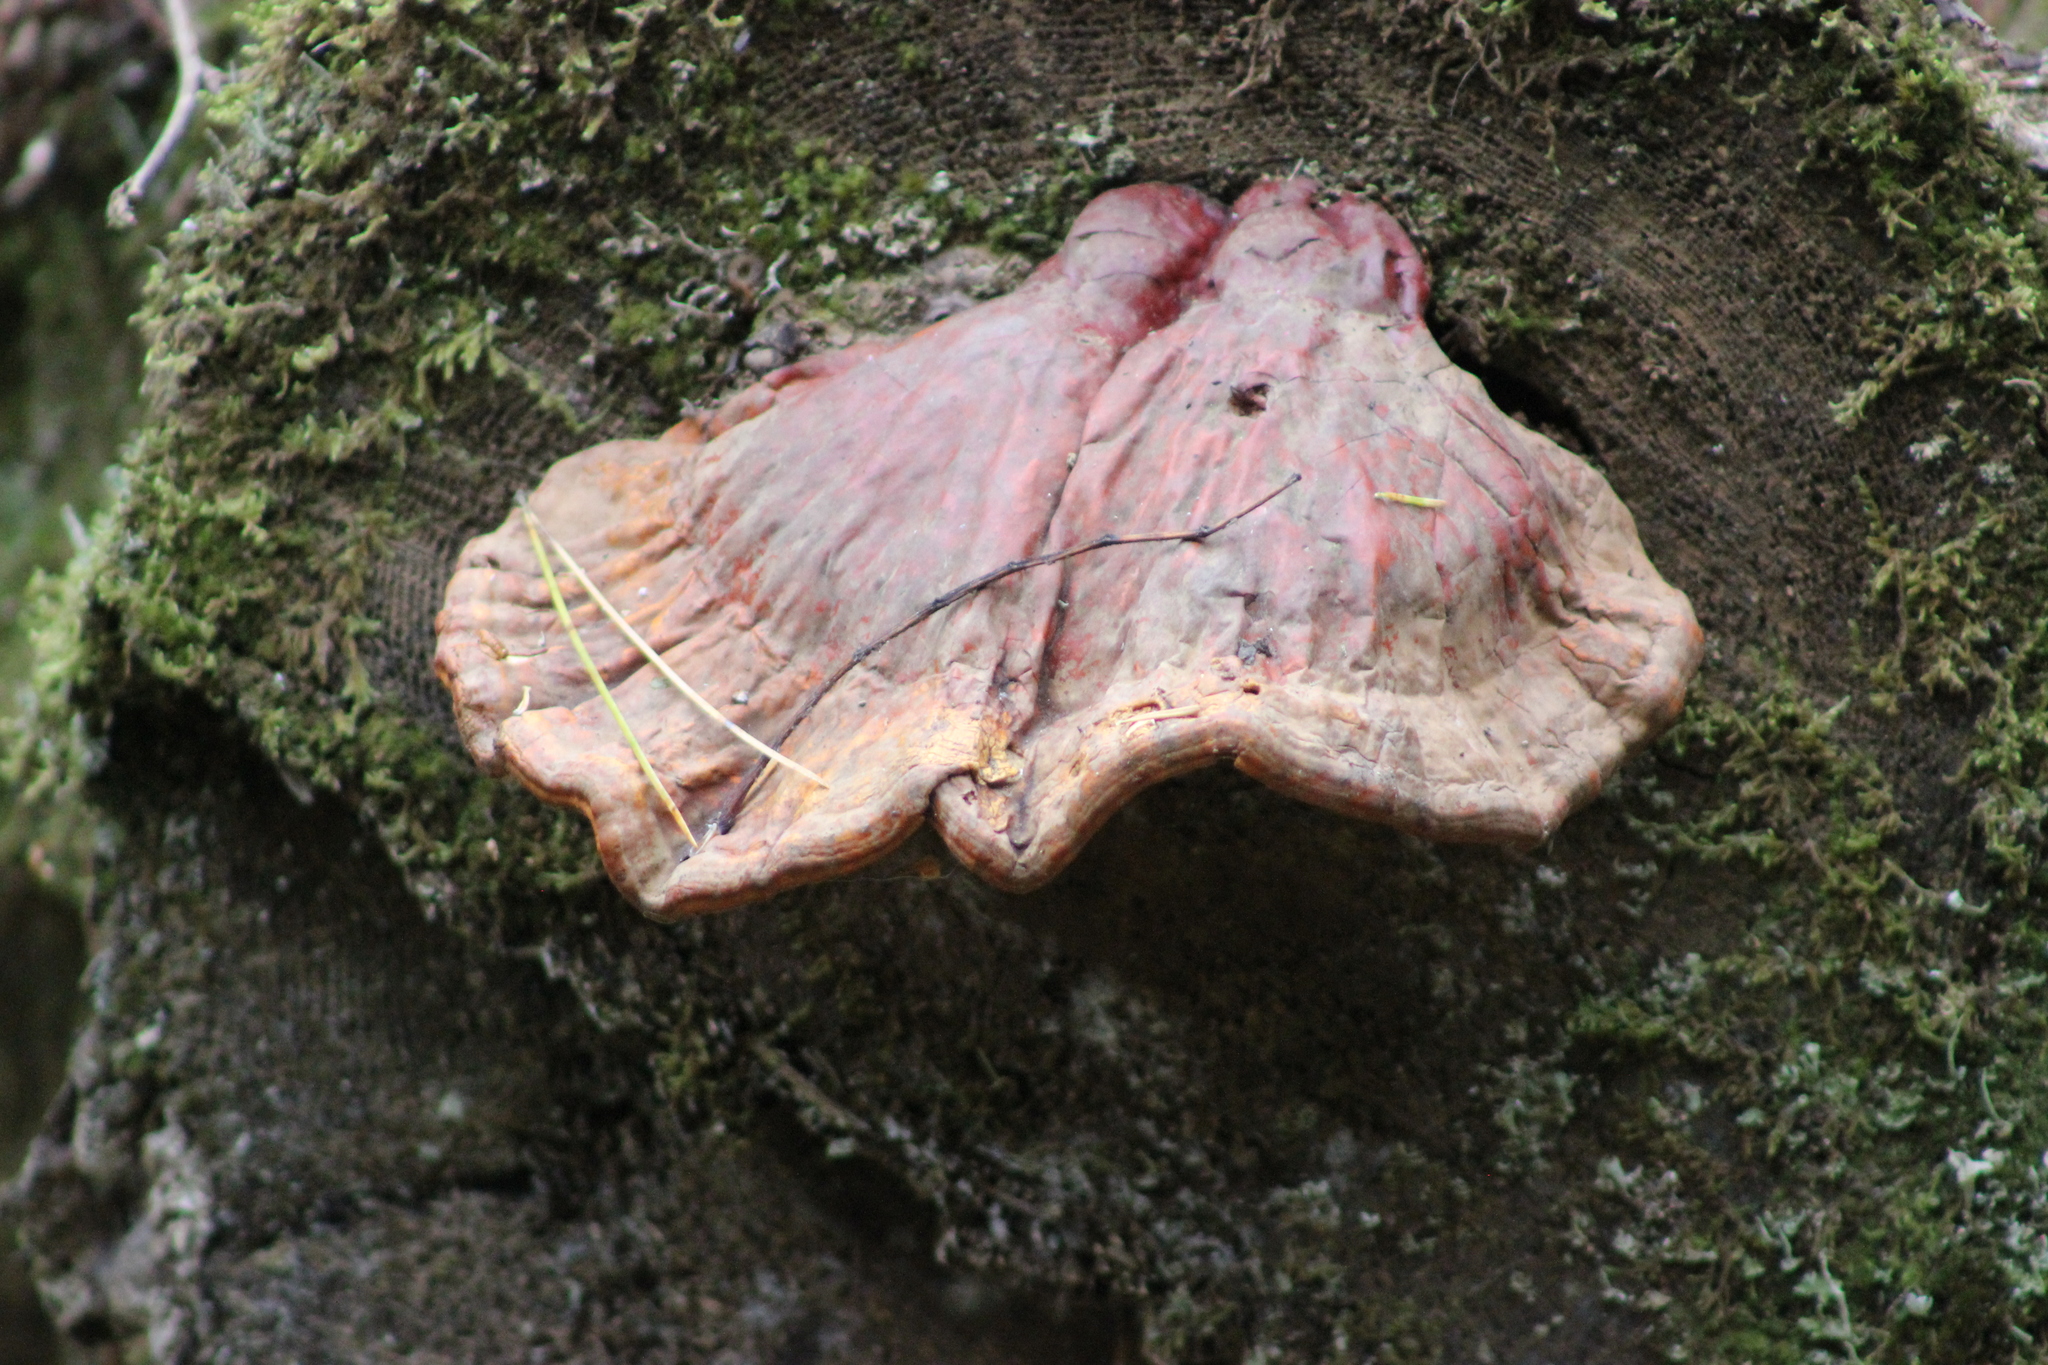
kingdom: Fungi
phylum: Basidiomycota
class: Agaricomycetes
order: Polyporales
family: Polyporaceae
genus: Ganoderma
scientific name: Ganoderma lucidum
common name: Lacquered bracket
